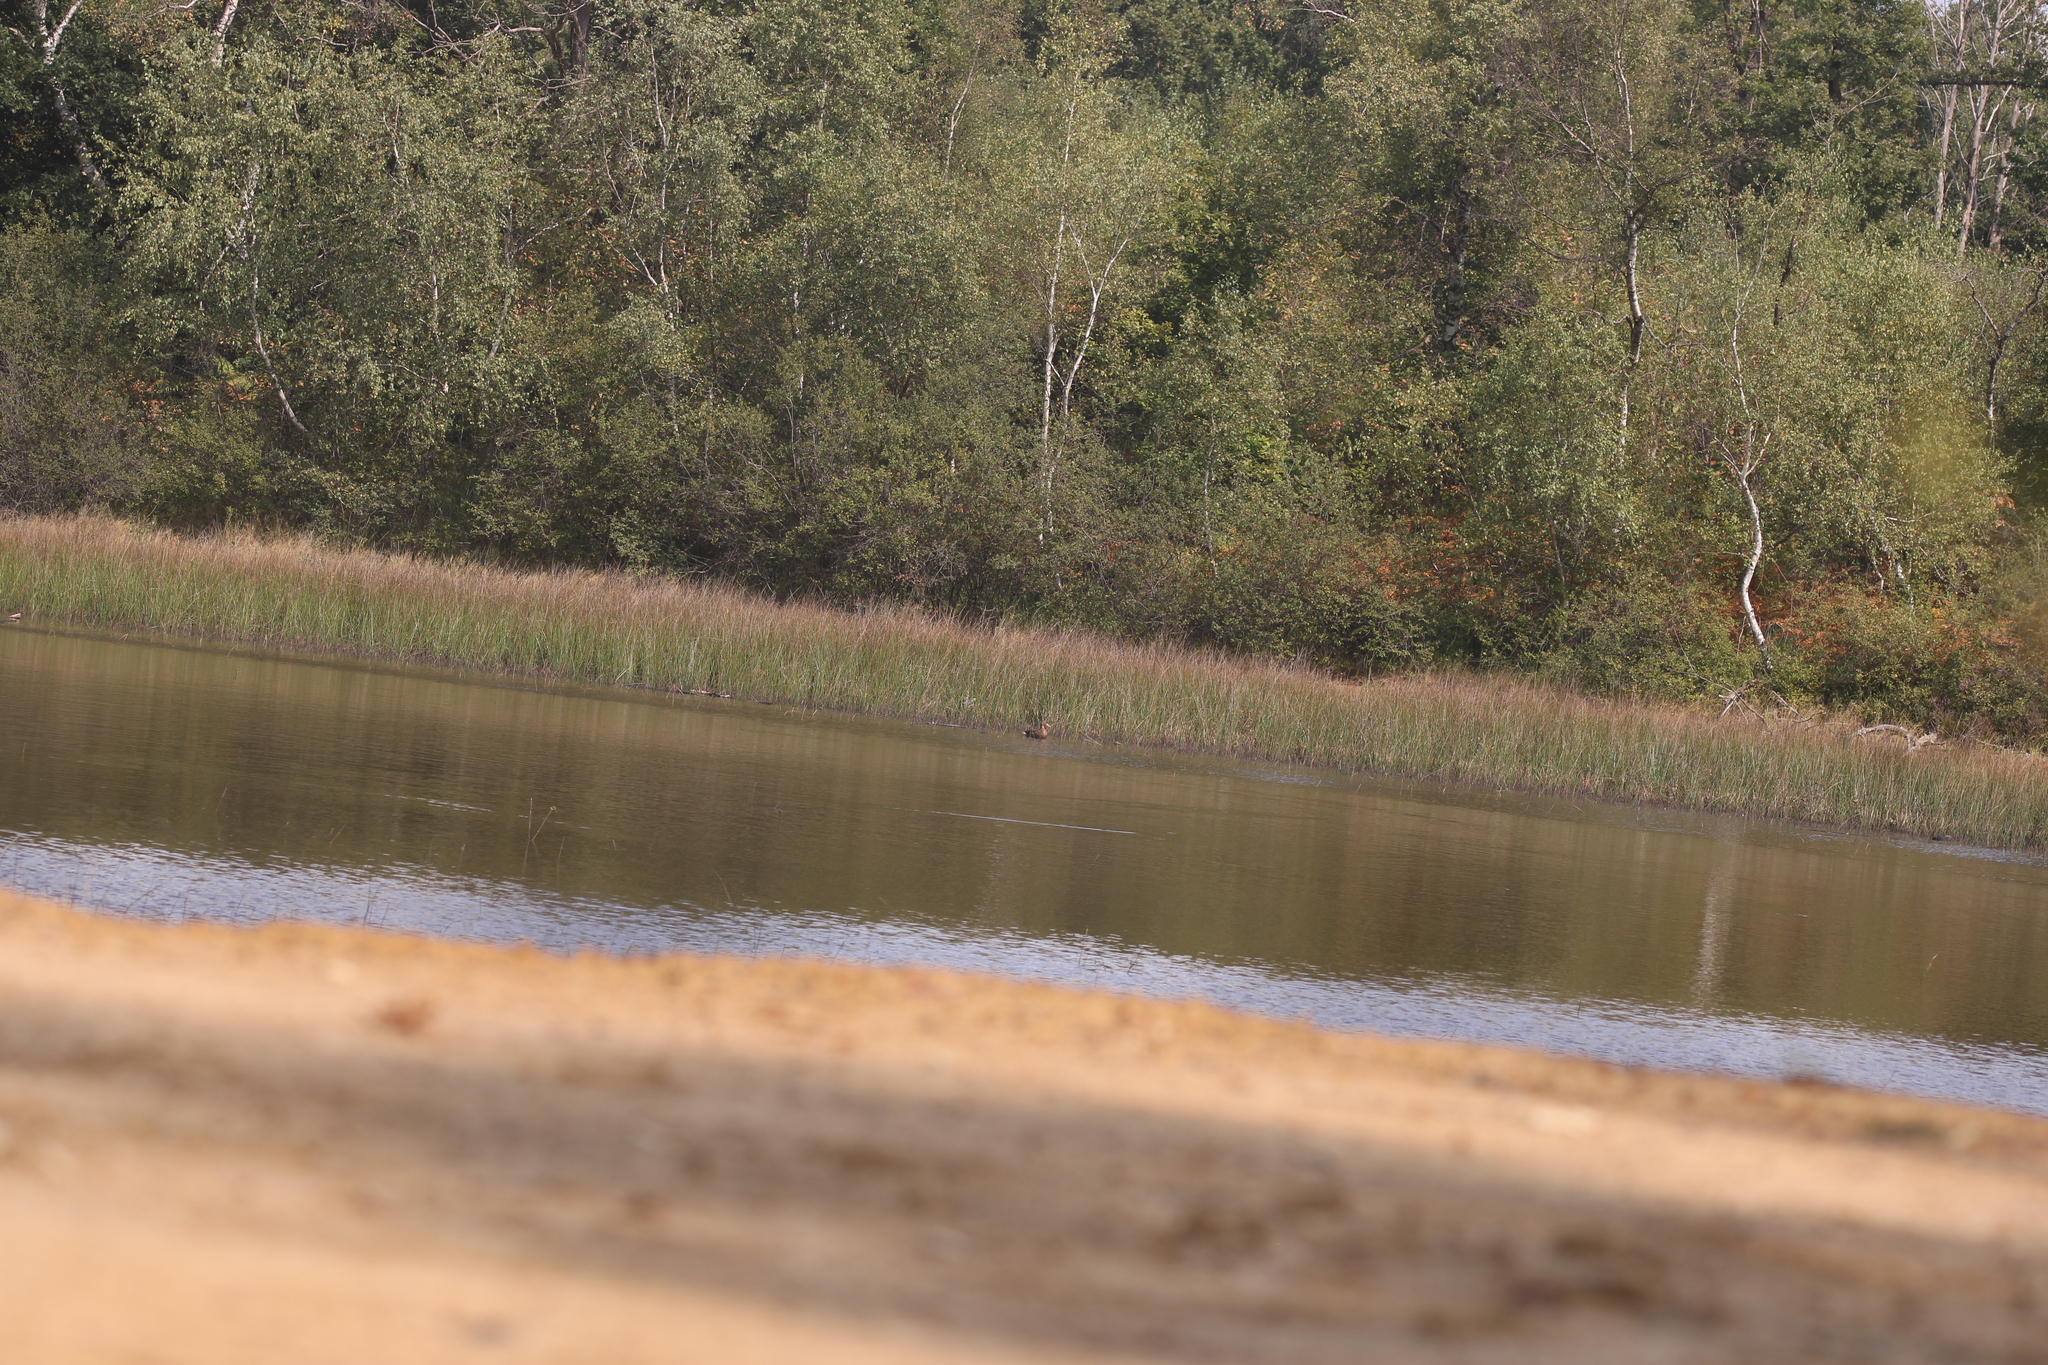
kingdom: Animalia
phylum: Chordata
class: Aves
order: Anseriformes
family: Anatidae
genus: Anas
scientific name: Anas platyrhynchos
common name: Mallard
